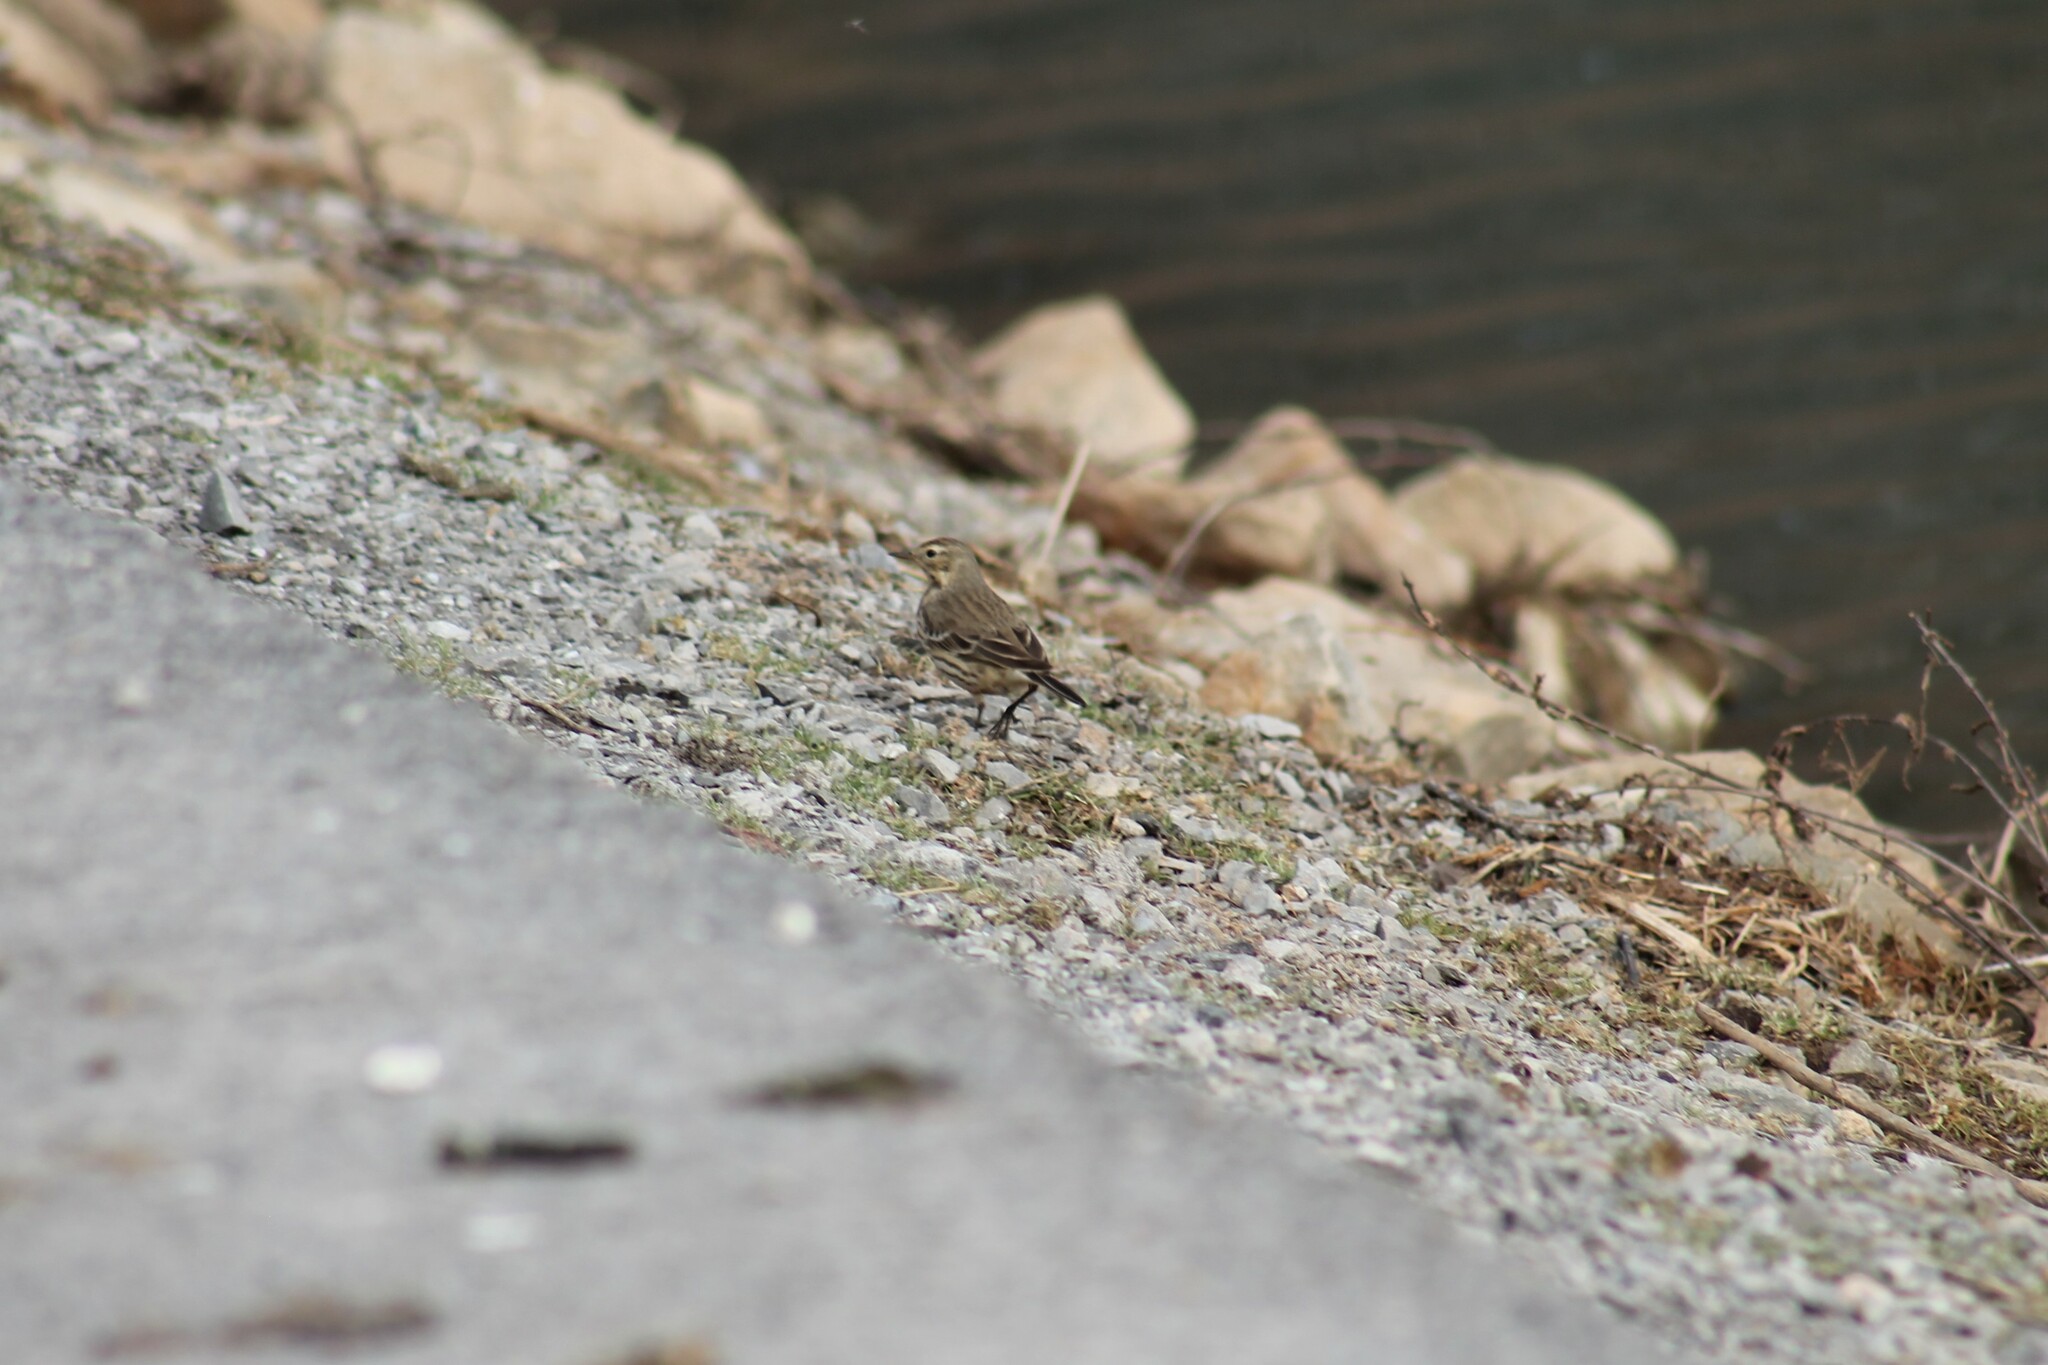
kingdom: Animalia
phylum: Chordata
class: Aves
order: Passeriformes
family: Motacillidae
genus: Anthus
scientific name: Anthus rubescens
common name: Buff-bellied pipit
